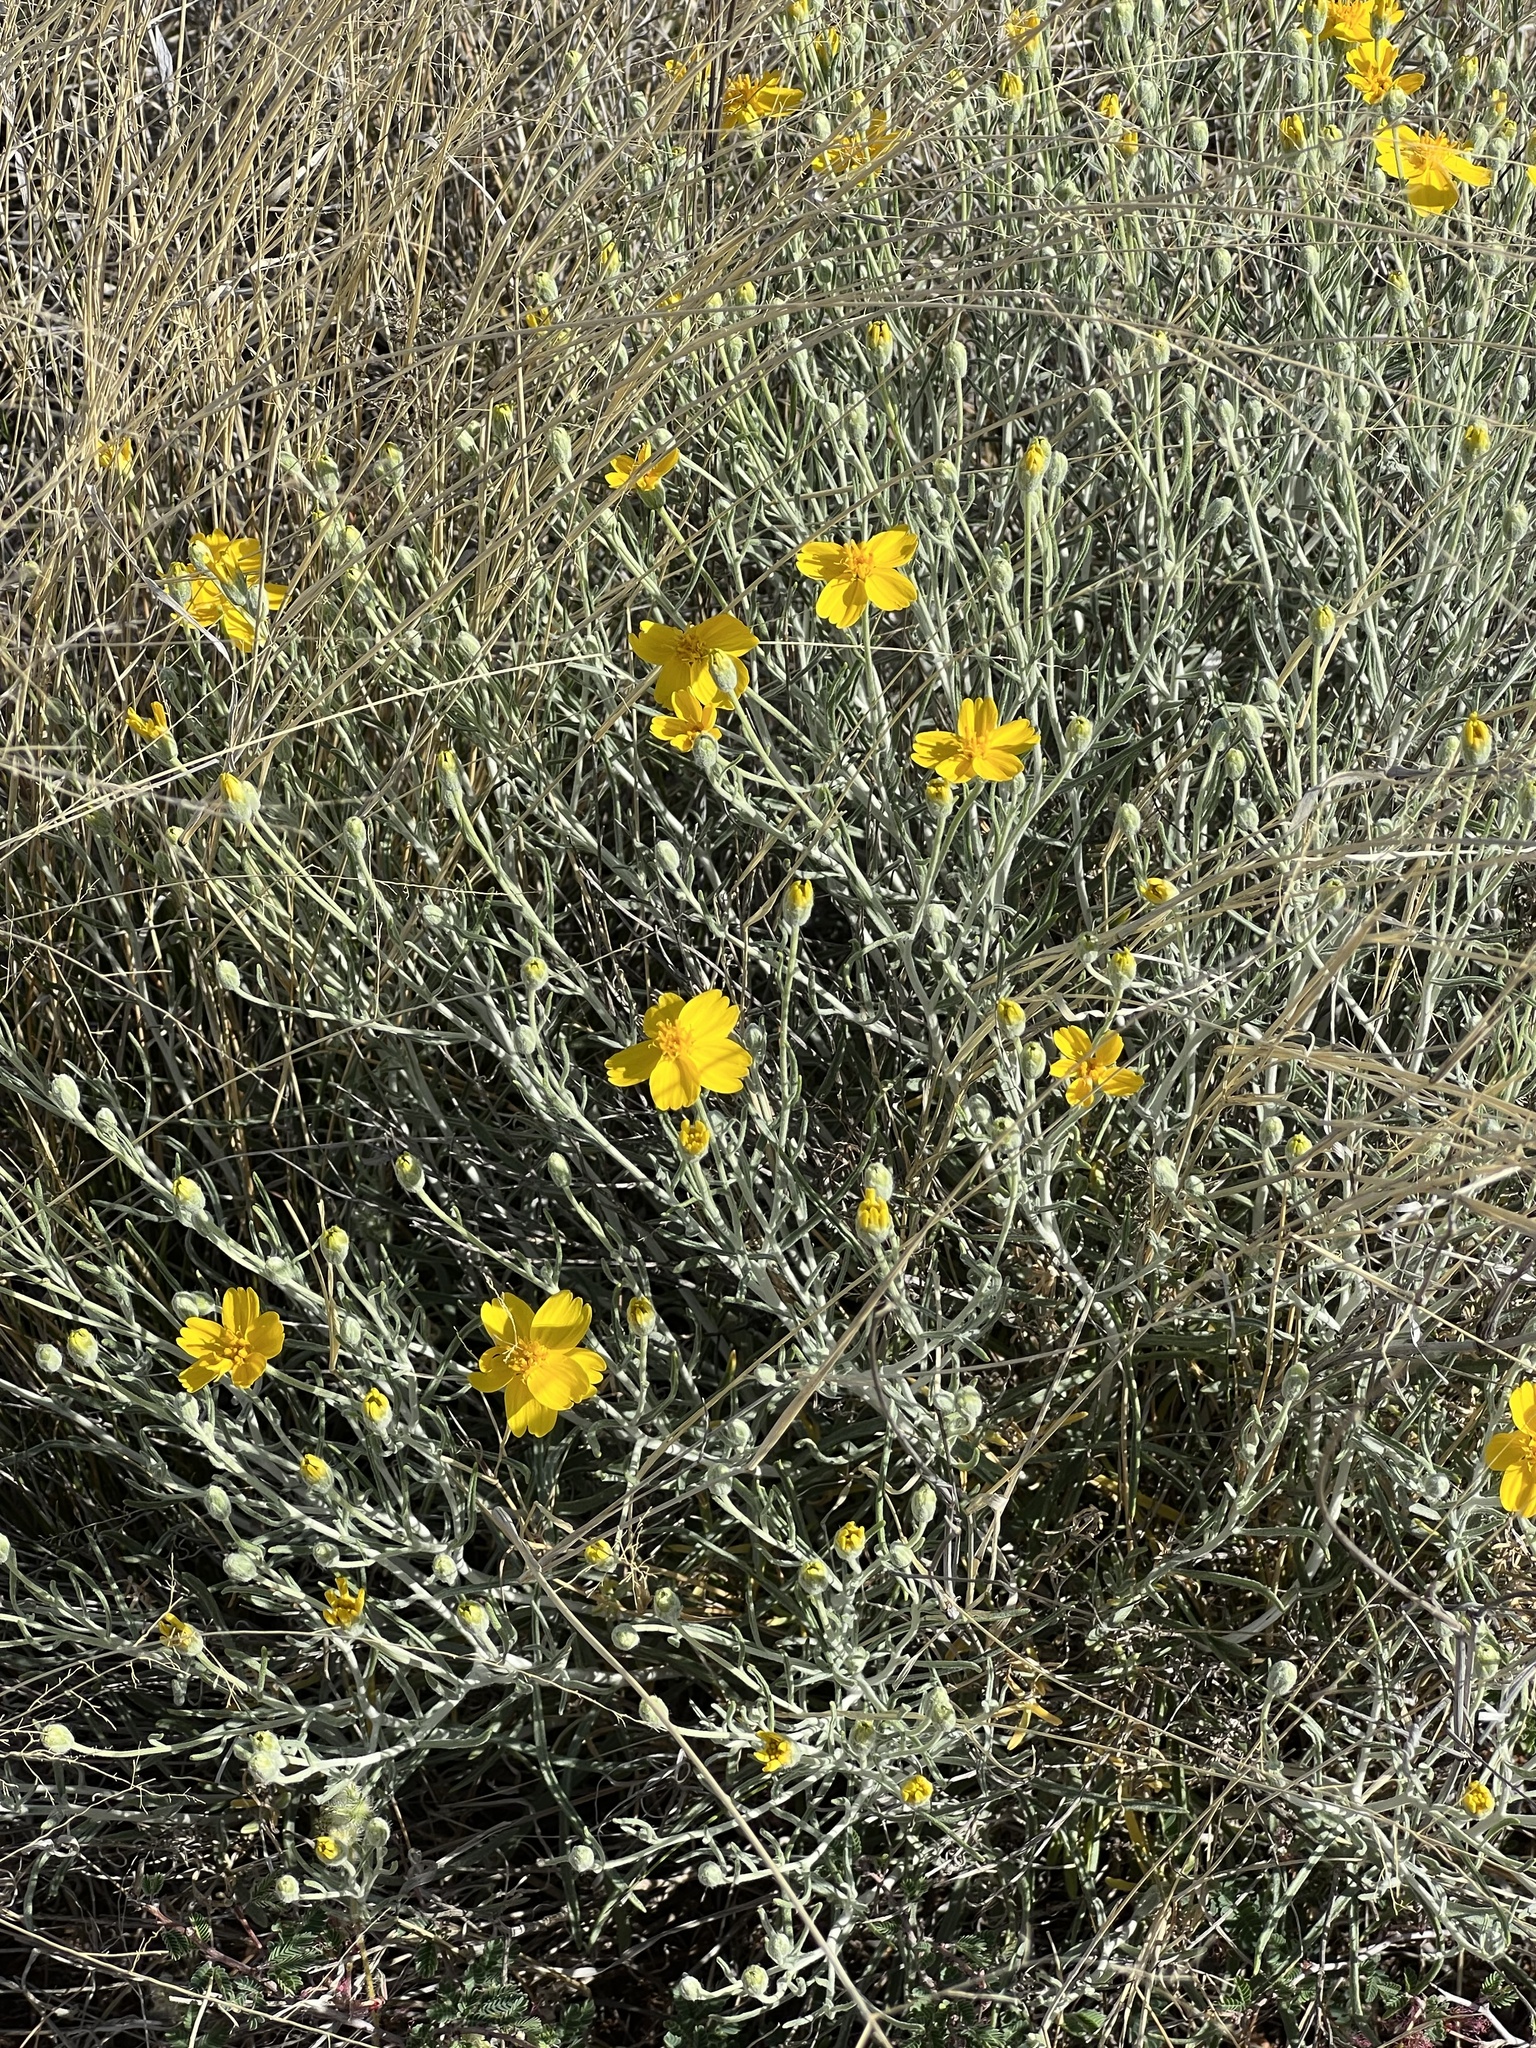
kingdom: Plantae
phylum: Tracheophyta
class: Magnoliopsida
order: Asterales
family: Asteraceae
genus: Psilostrophe
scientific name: Psilostrophe cooperi
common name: White-stem paper-flower
